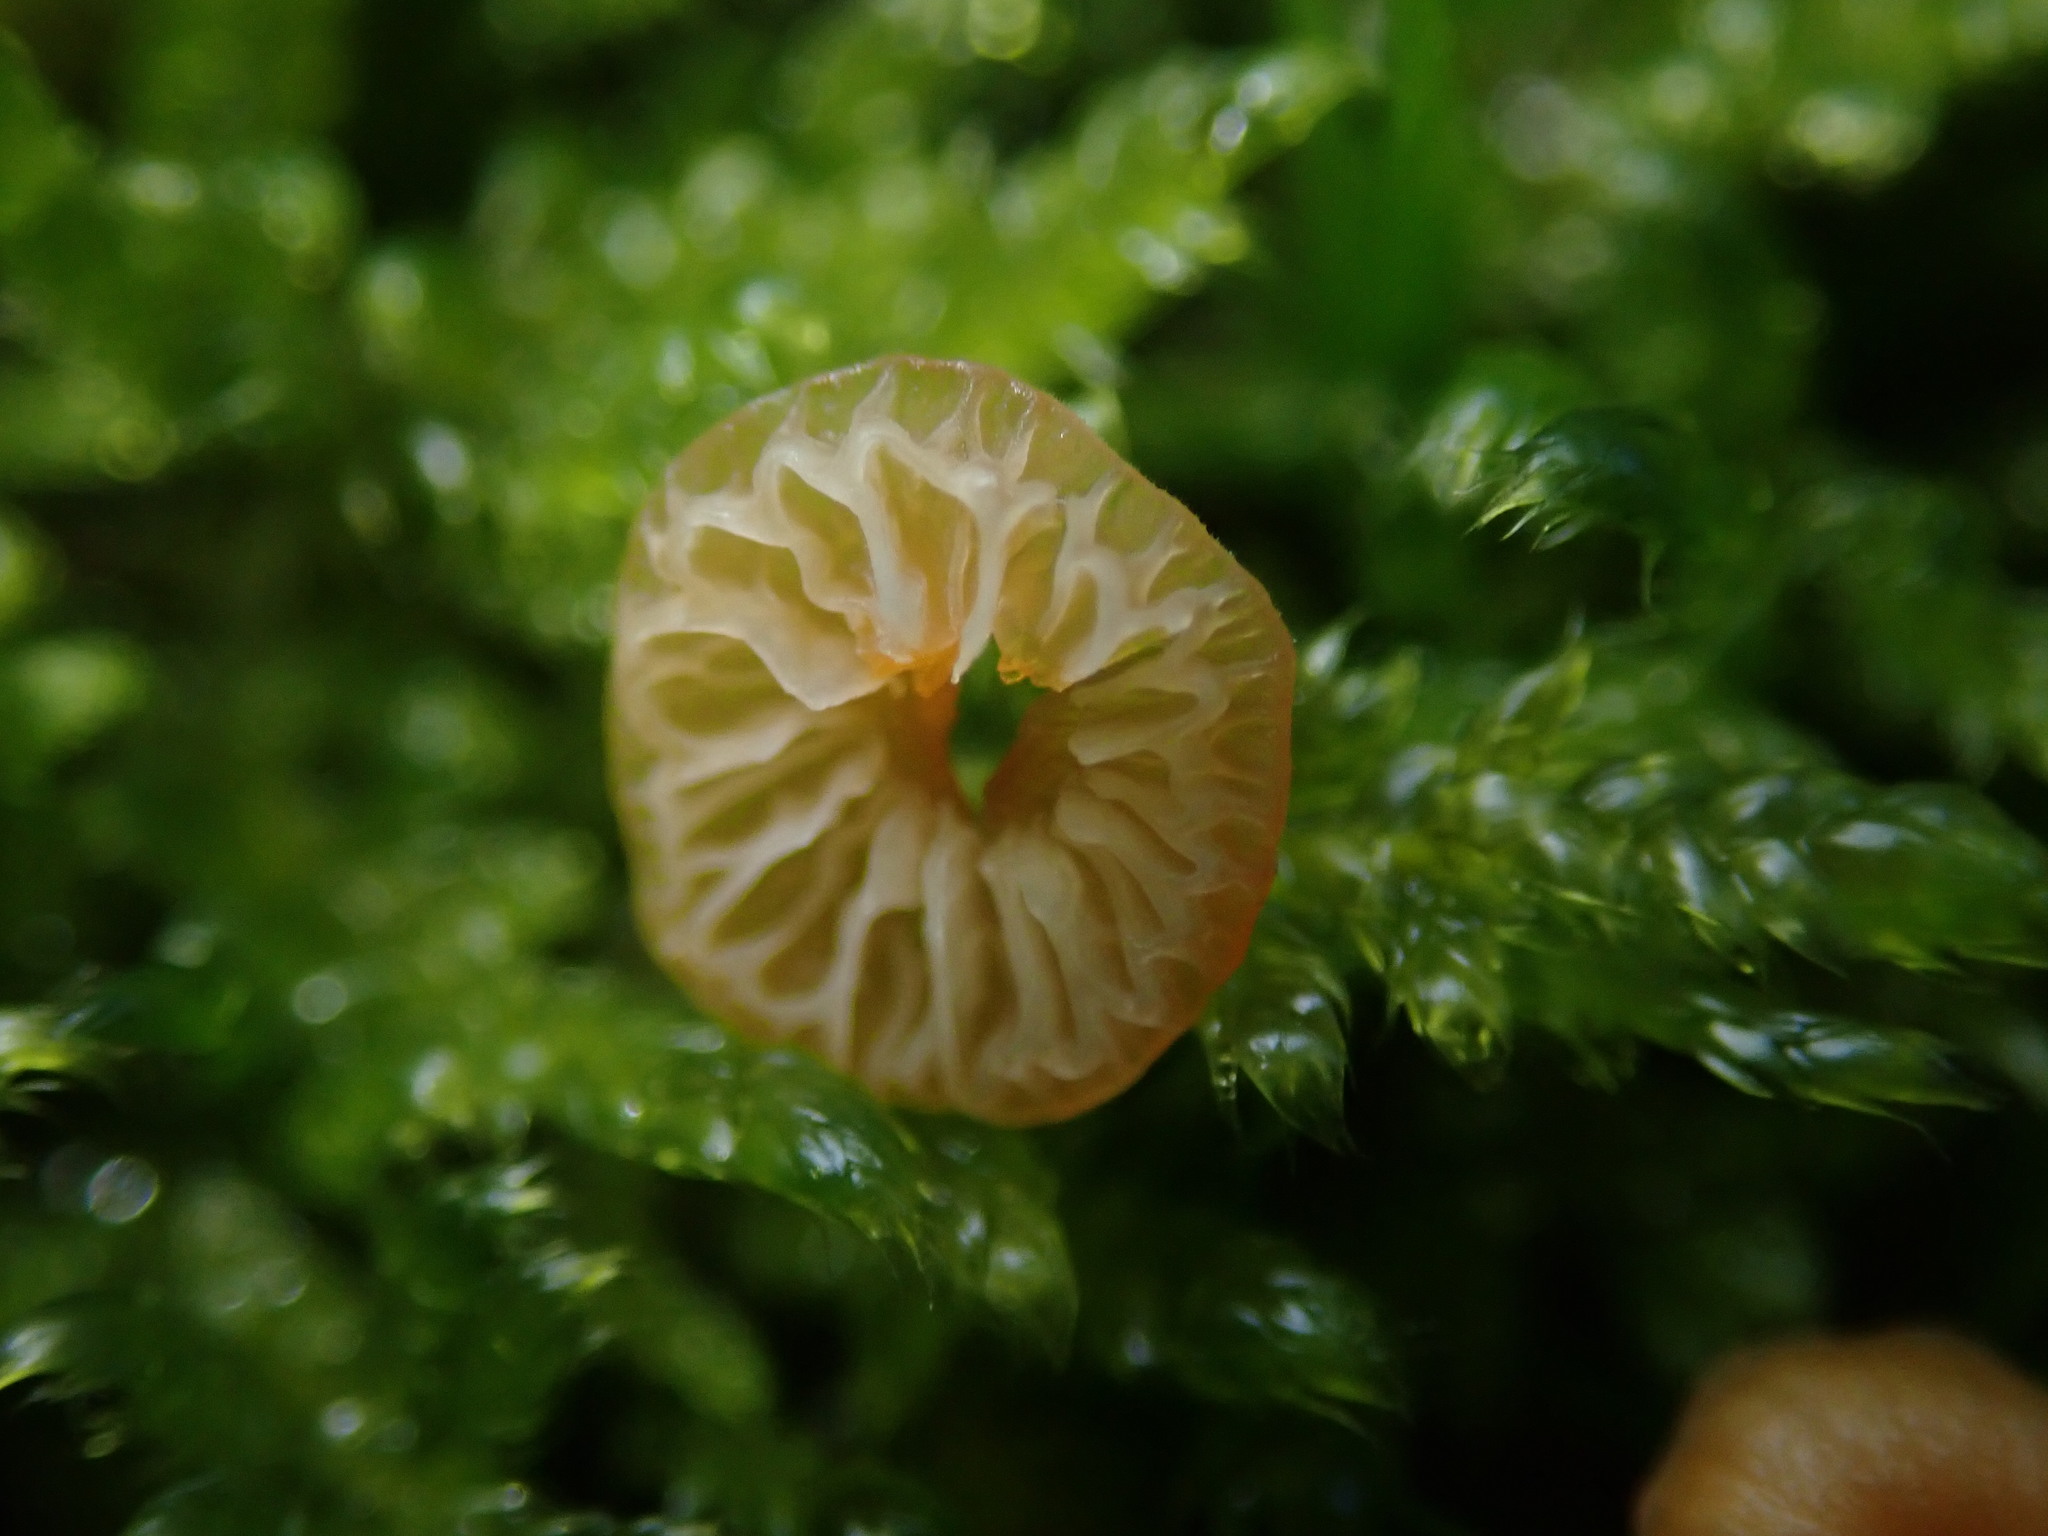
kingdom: Fungi
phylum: Basidiomycota
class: Agaricomycetes
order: Hymenochaetales
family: Rickenellaceae
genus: Rickenella
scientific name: Rickenella fibula
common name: Orange mosscap
